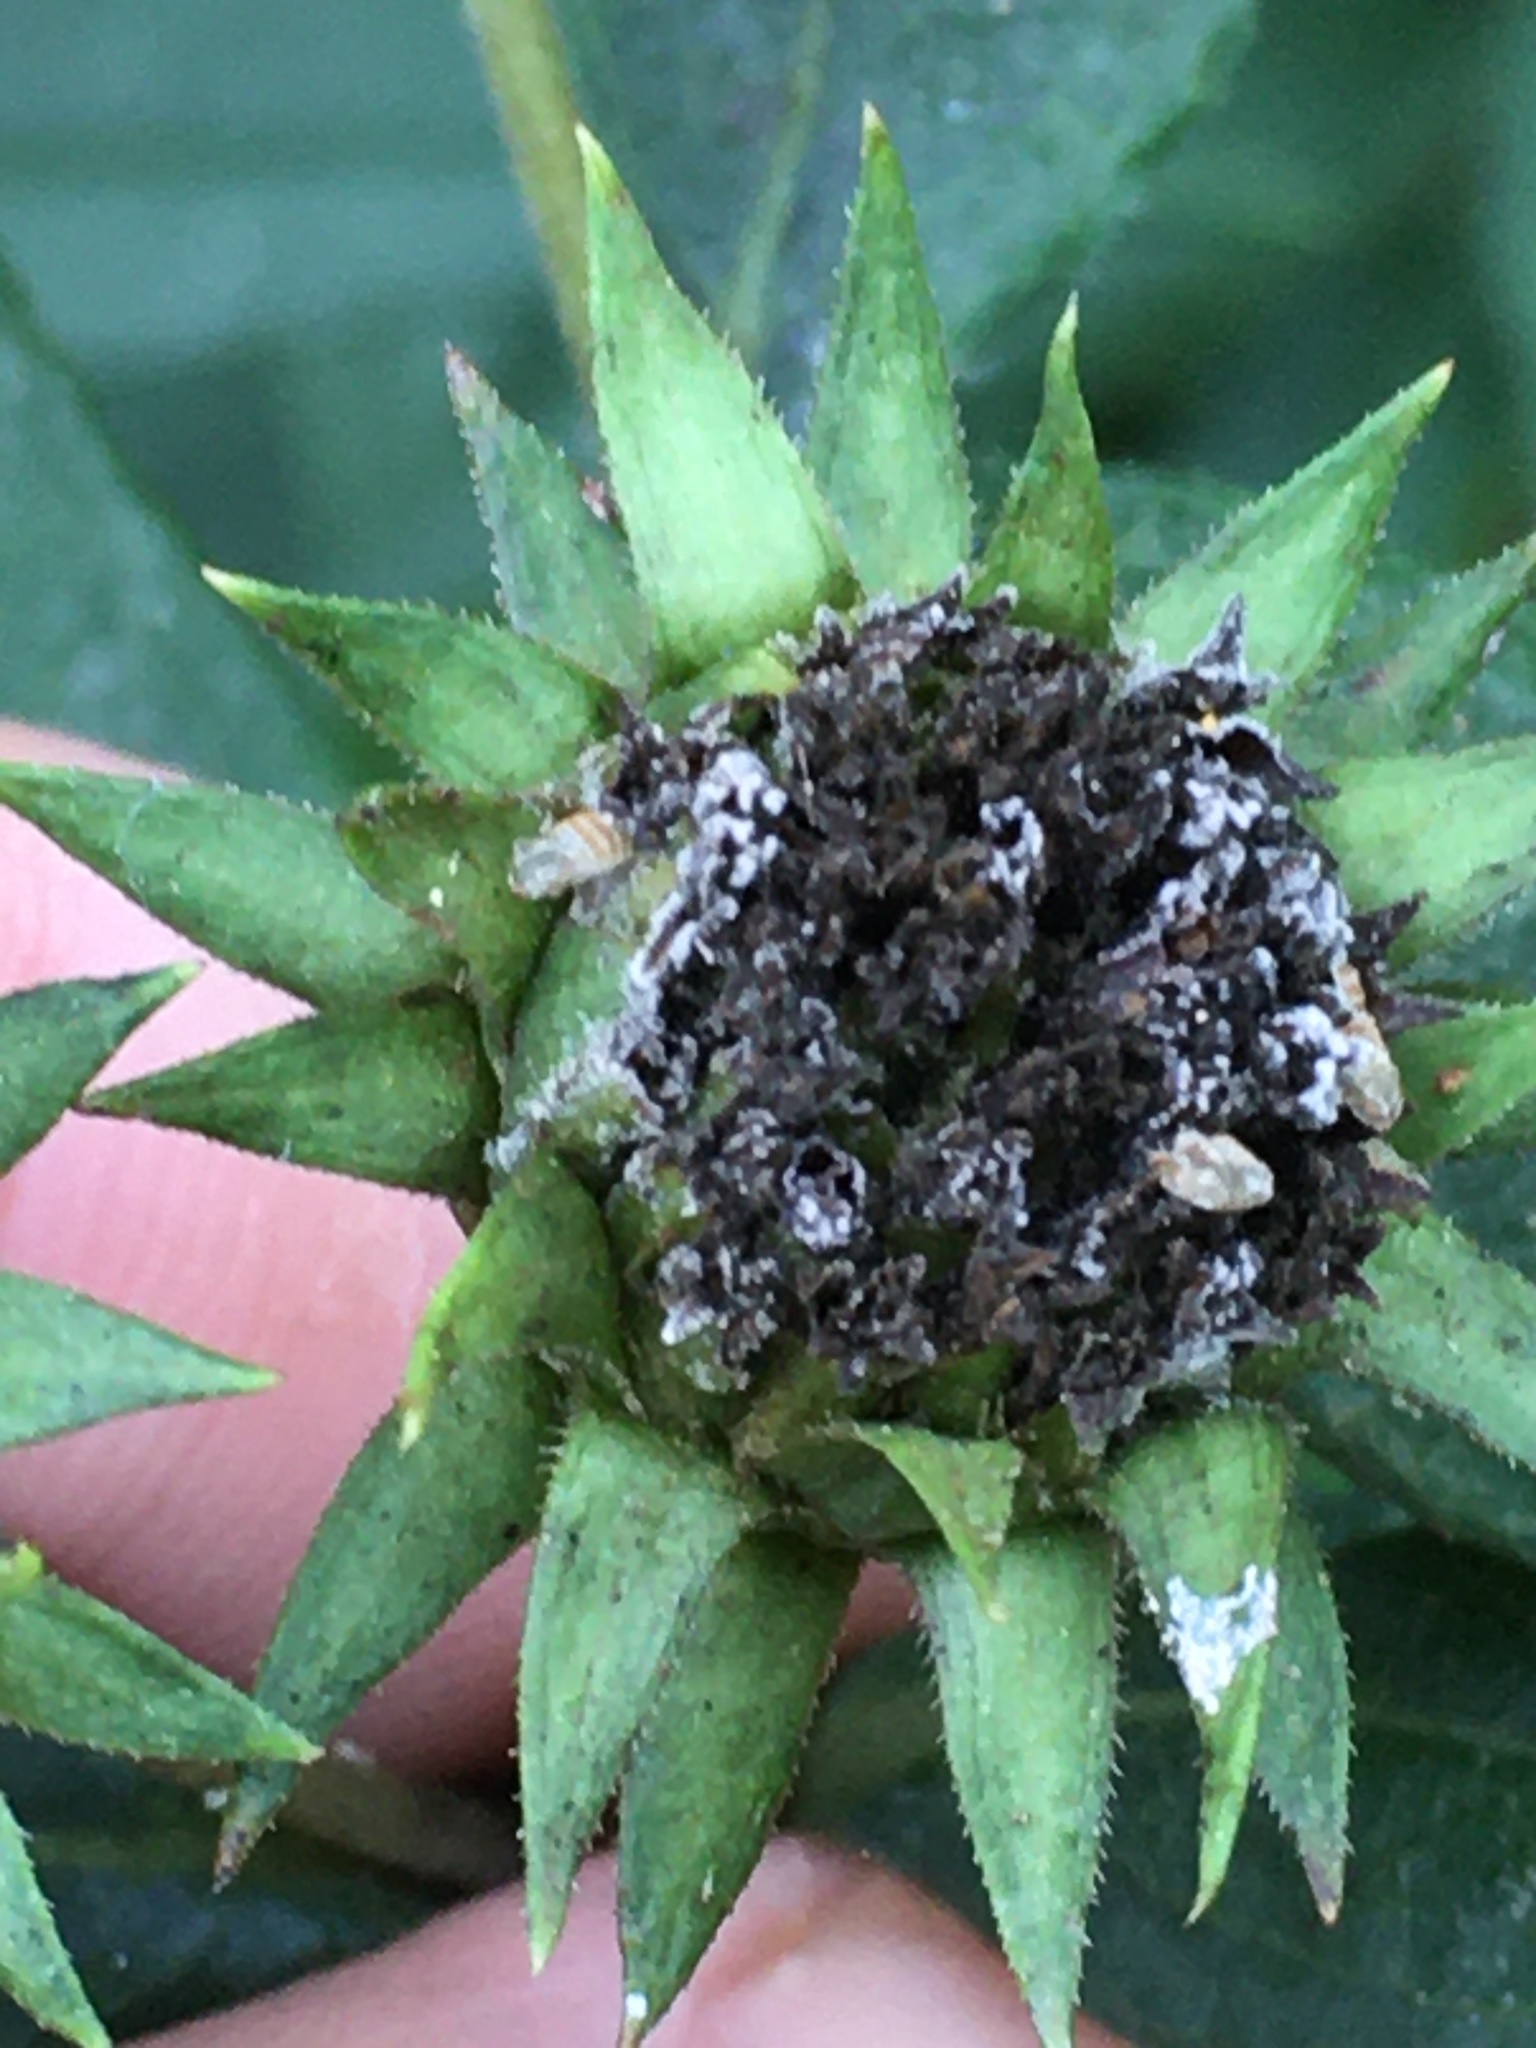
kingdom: Plantae
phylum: Tracheophyta
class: Magnoliopsida
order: Asterales
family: Asteraceae
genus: Helianthus
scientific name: Helianthus strumosus
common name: Pale-leaved sunflower
